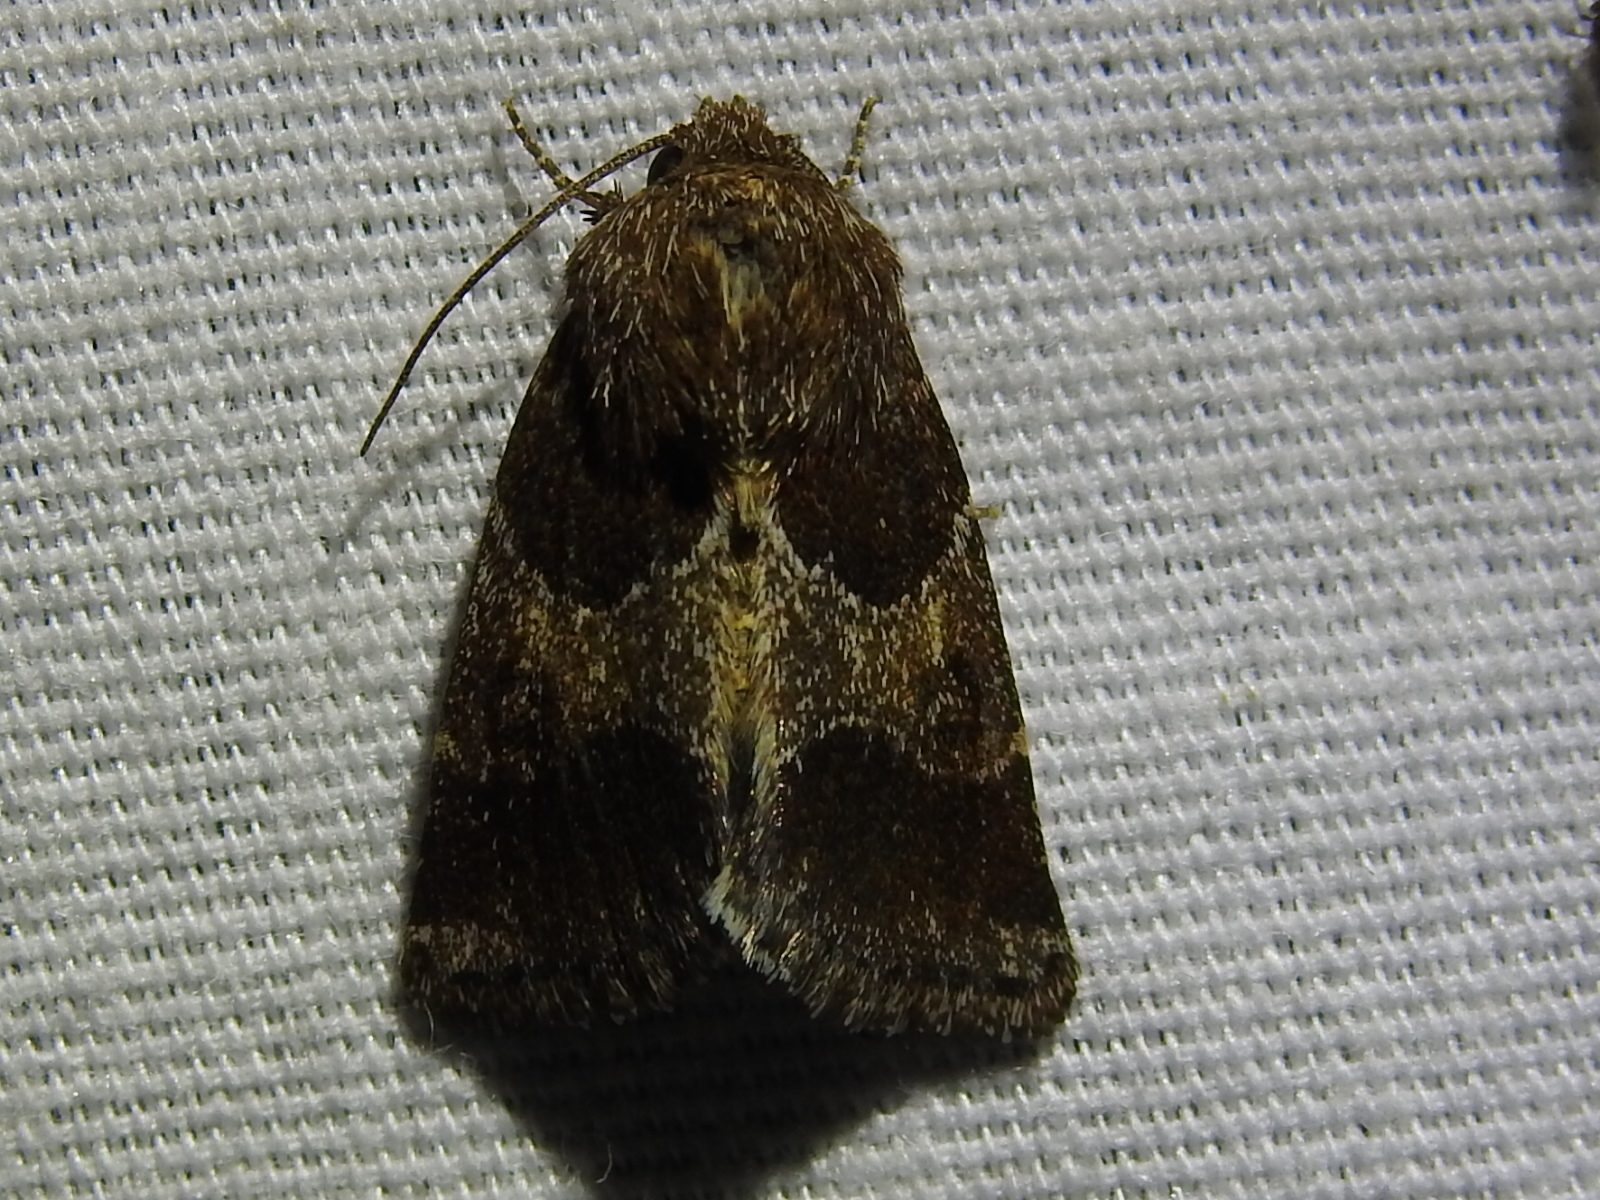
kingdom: Animalia
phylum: Arthropoda
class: Insecta
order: Lepidoptera
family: Noctuidae
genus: Schinia
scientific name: Schinia saturata
